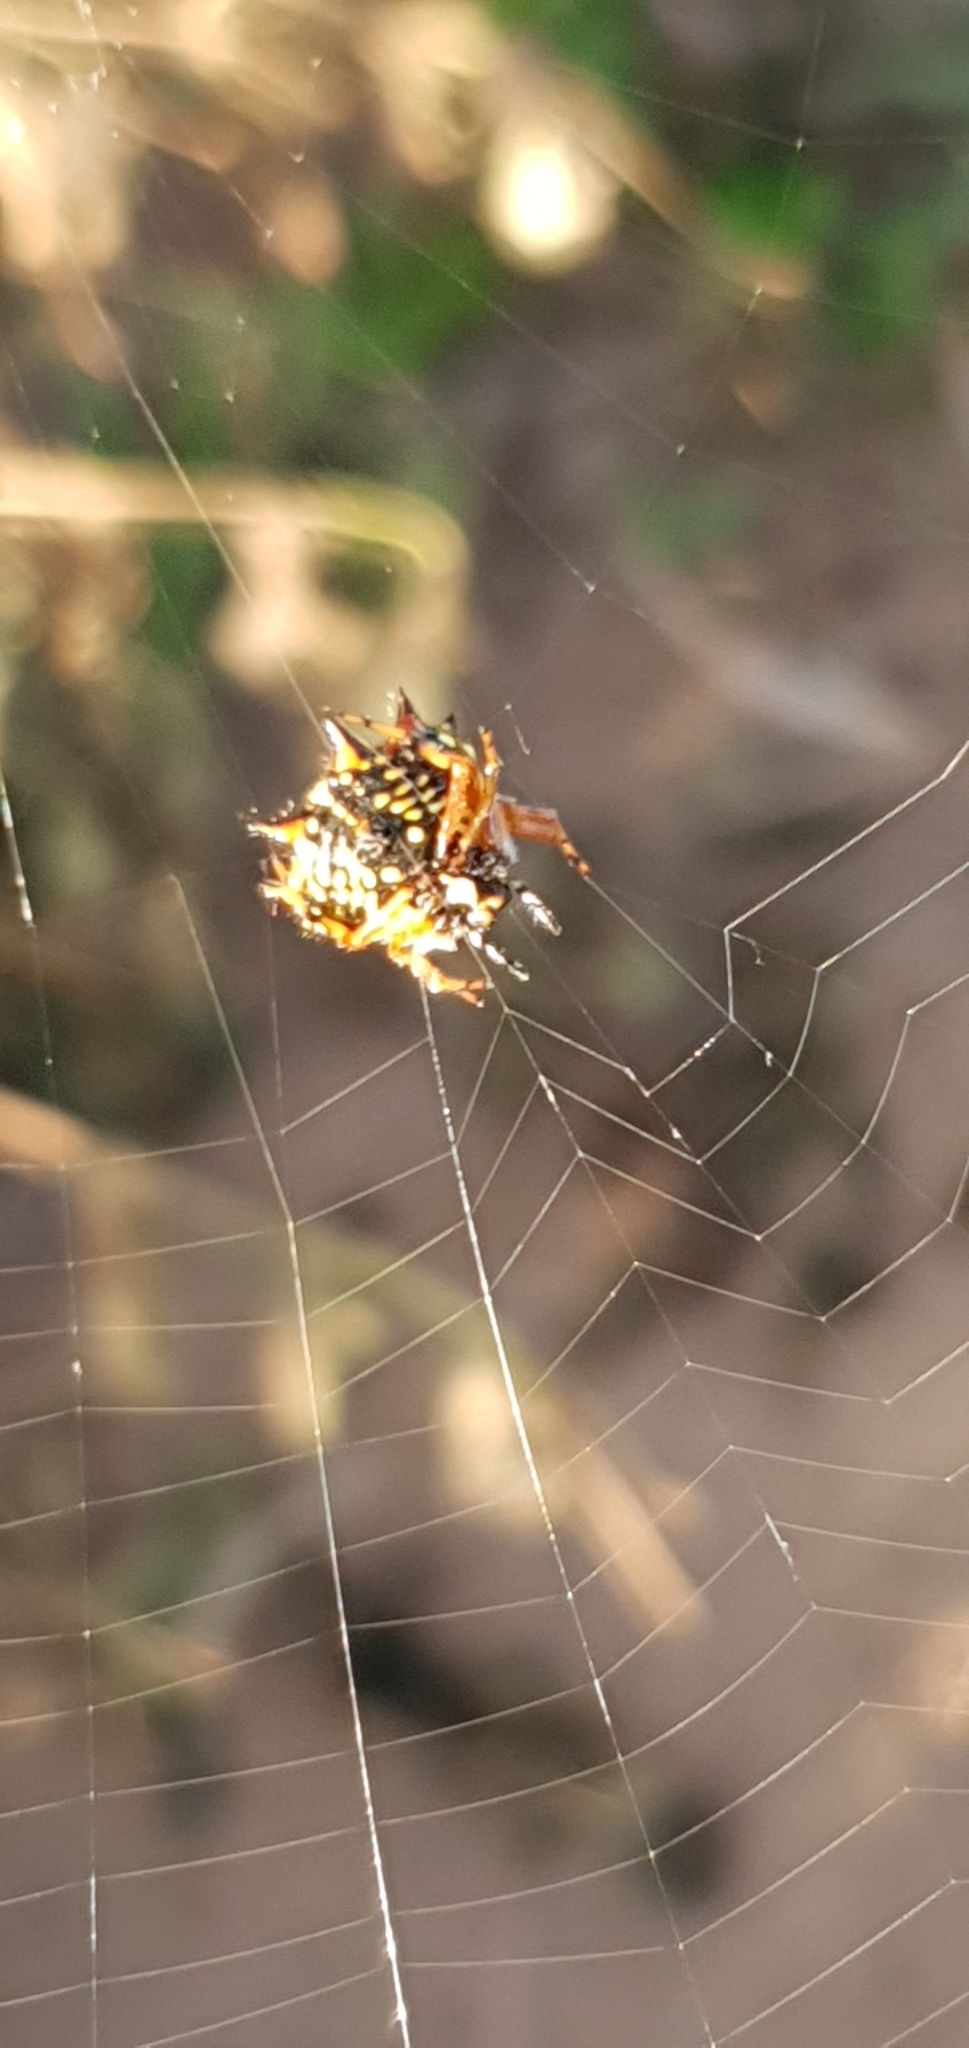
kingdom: Animalia
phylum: Arthropoda
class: Arachnida
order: Araneae
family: Araneidae
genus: Austracantha
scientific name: Austracantha minax
